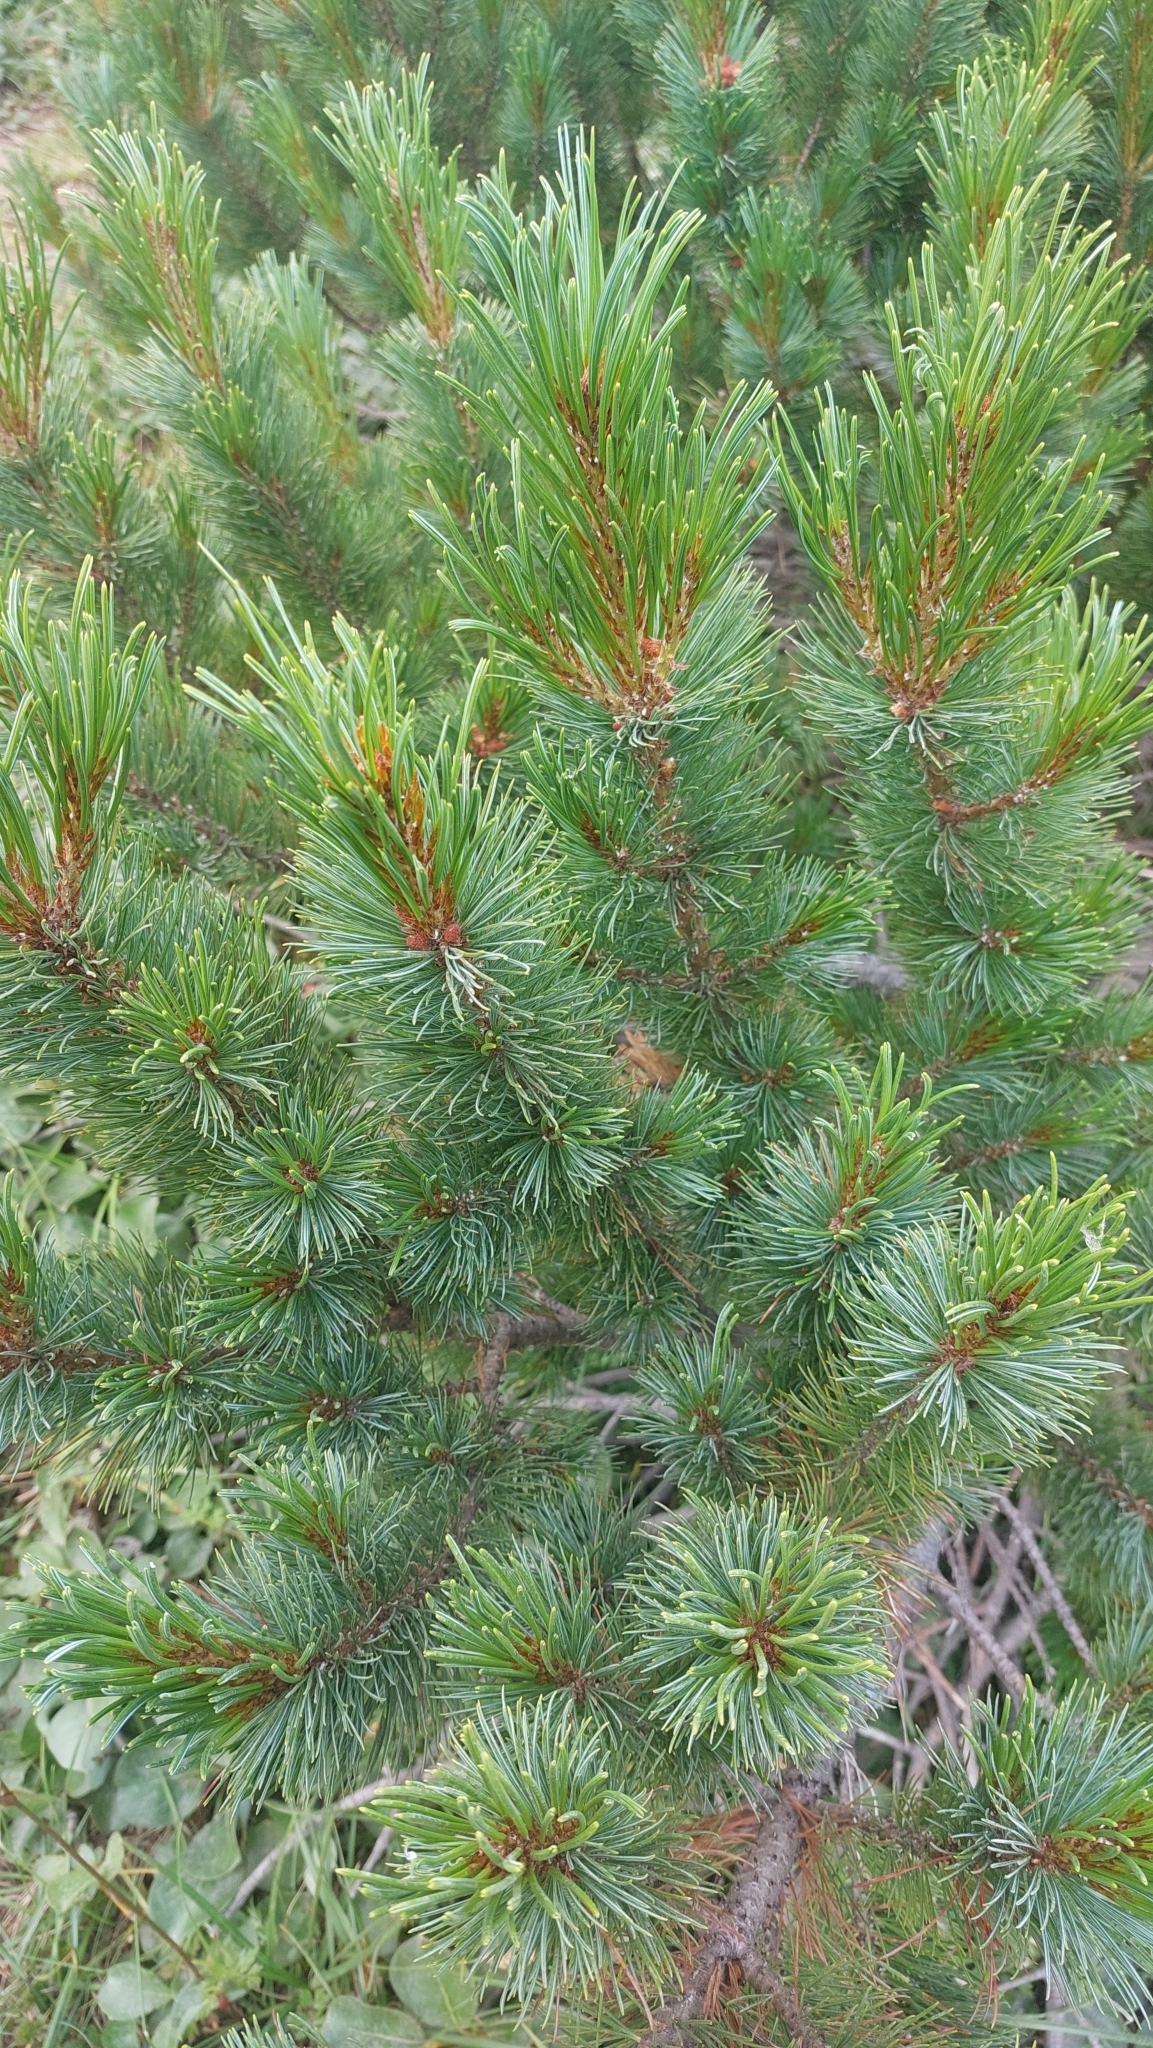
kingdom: Plantae
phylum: Tracheophyta
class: Pinopsida
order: Pinales
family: Pinaceae
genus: Pinus
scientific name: Pinus pumila
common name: Dwarf siberian pine
